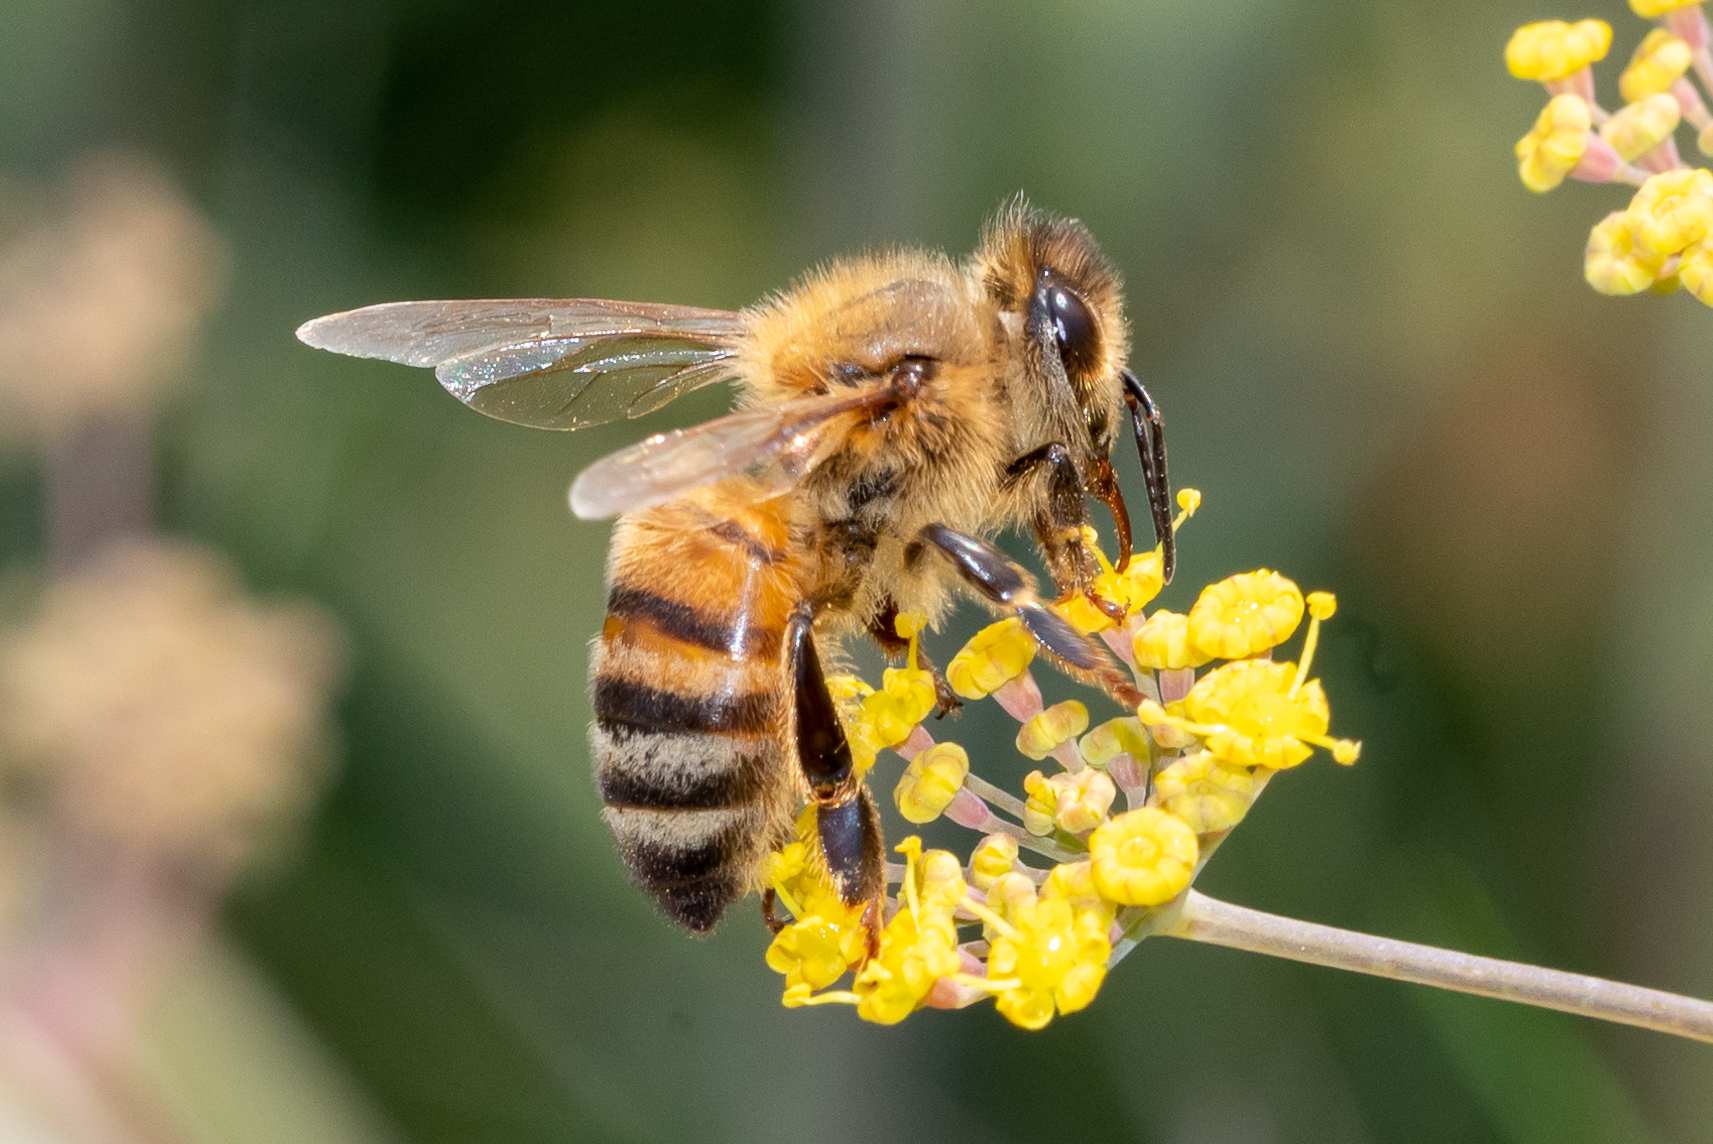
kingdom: Animalia
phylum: Arthropoda
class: Insecta
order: Hymenoptera
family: Apidae
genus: Apis
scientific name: Apis mellifera
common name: Honey bee
